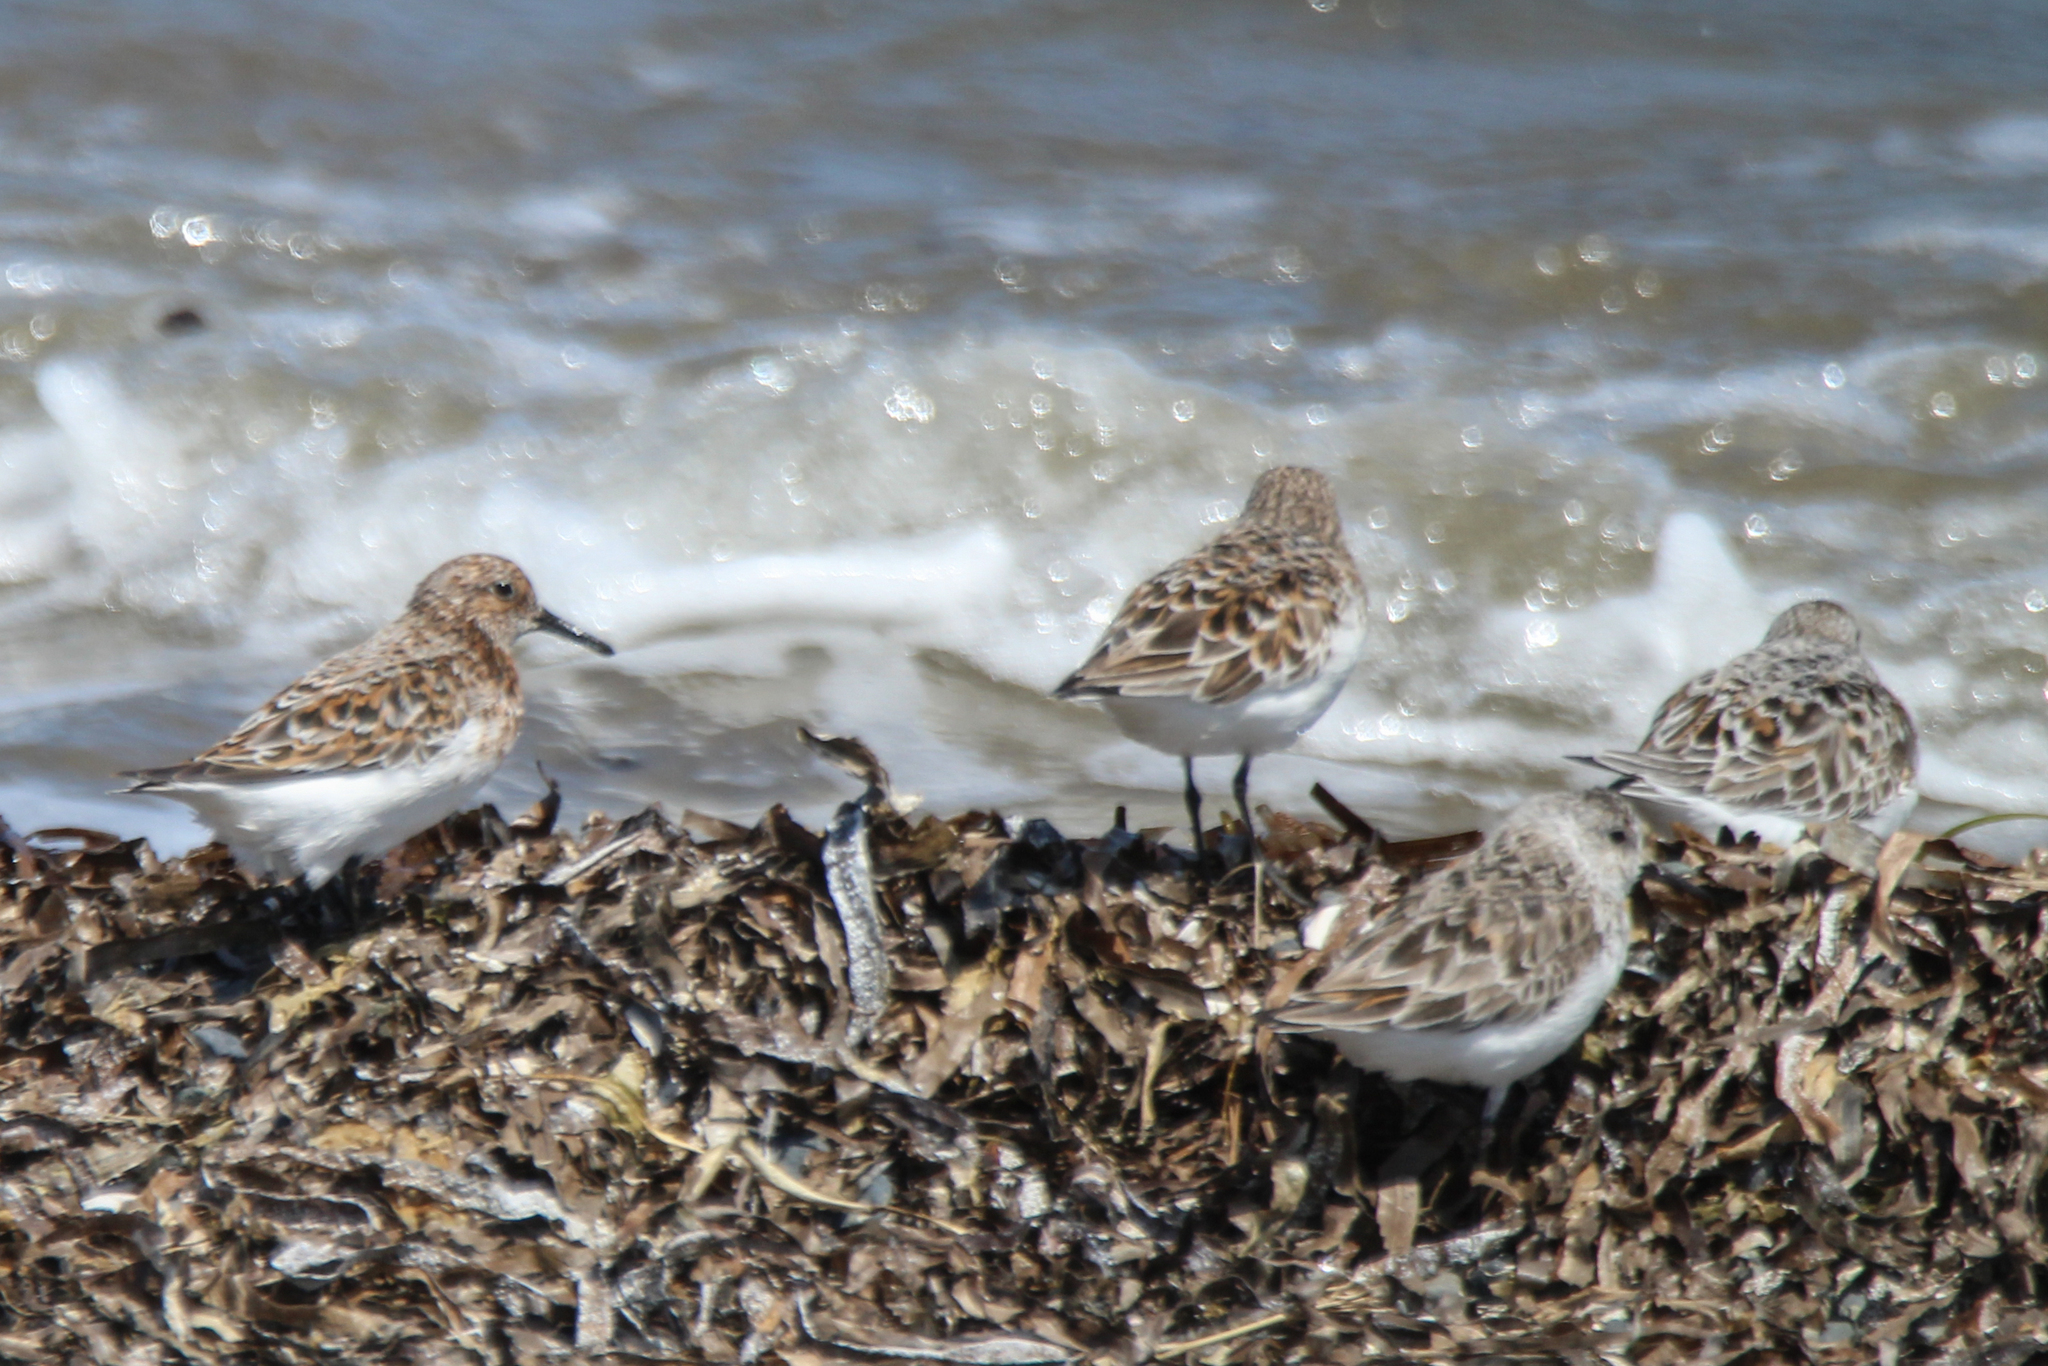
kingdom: Animalia
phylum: Chordata
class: Aves
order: Charadriiformes
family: Scolopacidae
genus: Calidris
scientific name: Calidris alba
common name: Sanderling
